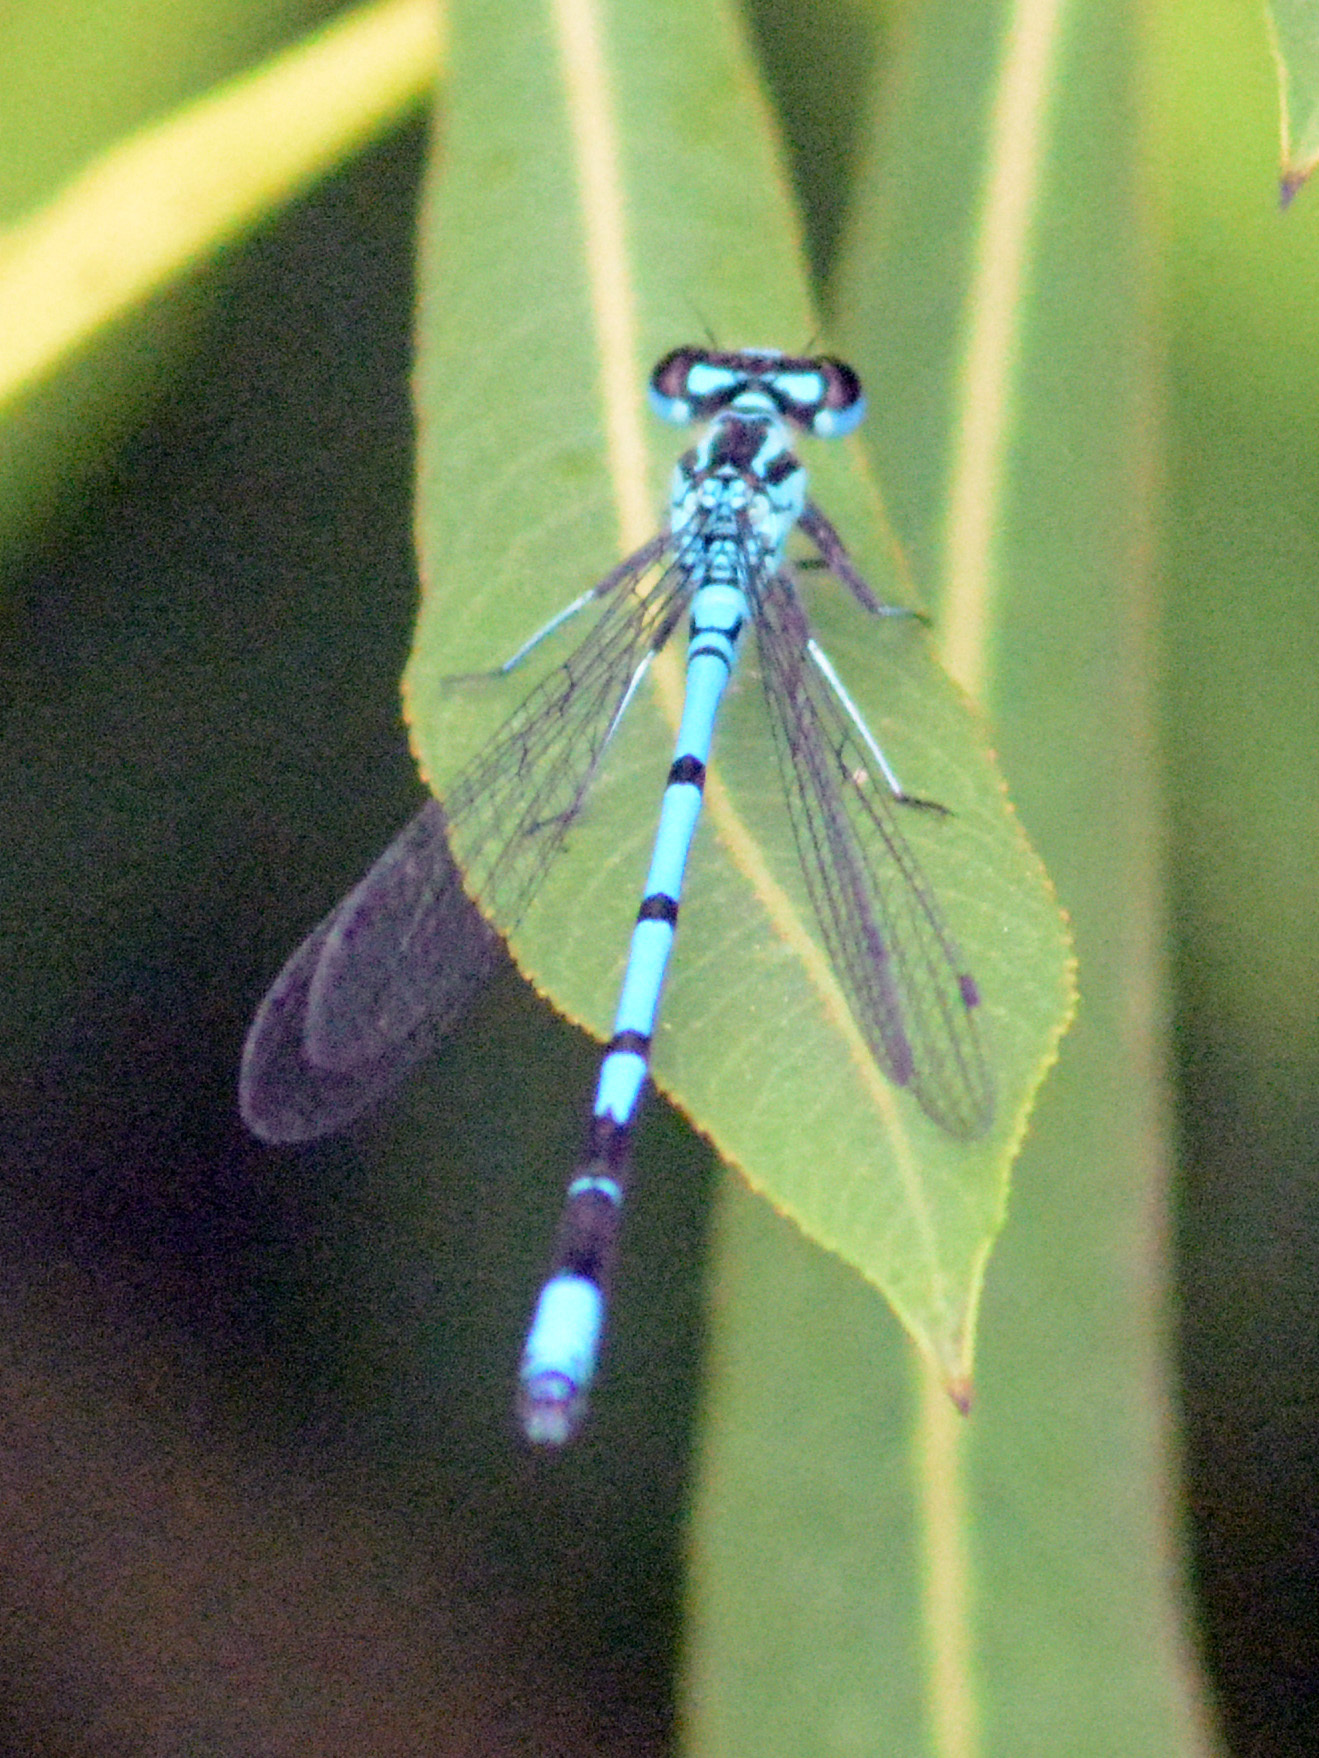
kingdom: Animalia
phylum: Arthropoda
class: Insecta
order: Odonata
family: Coenagrionidae
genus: Coenagrion
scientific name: Coenagrion puella
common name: Azure damselfly
